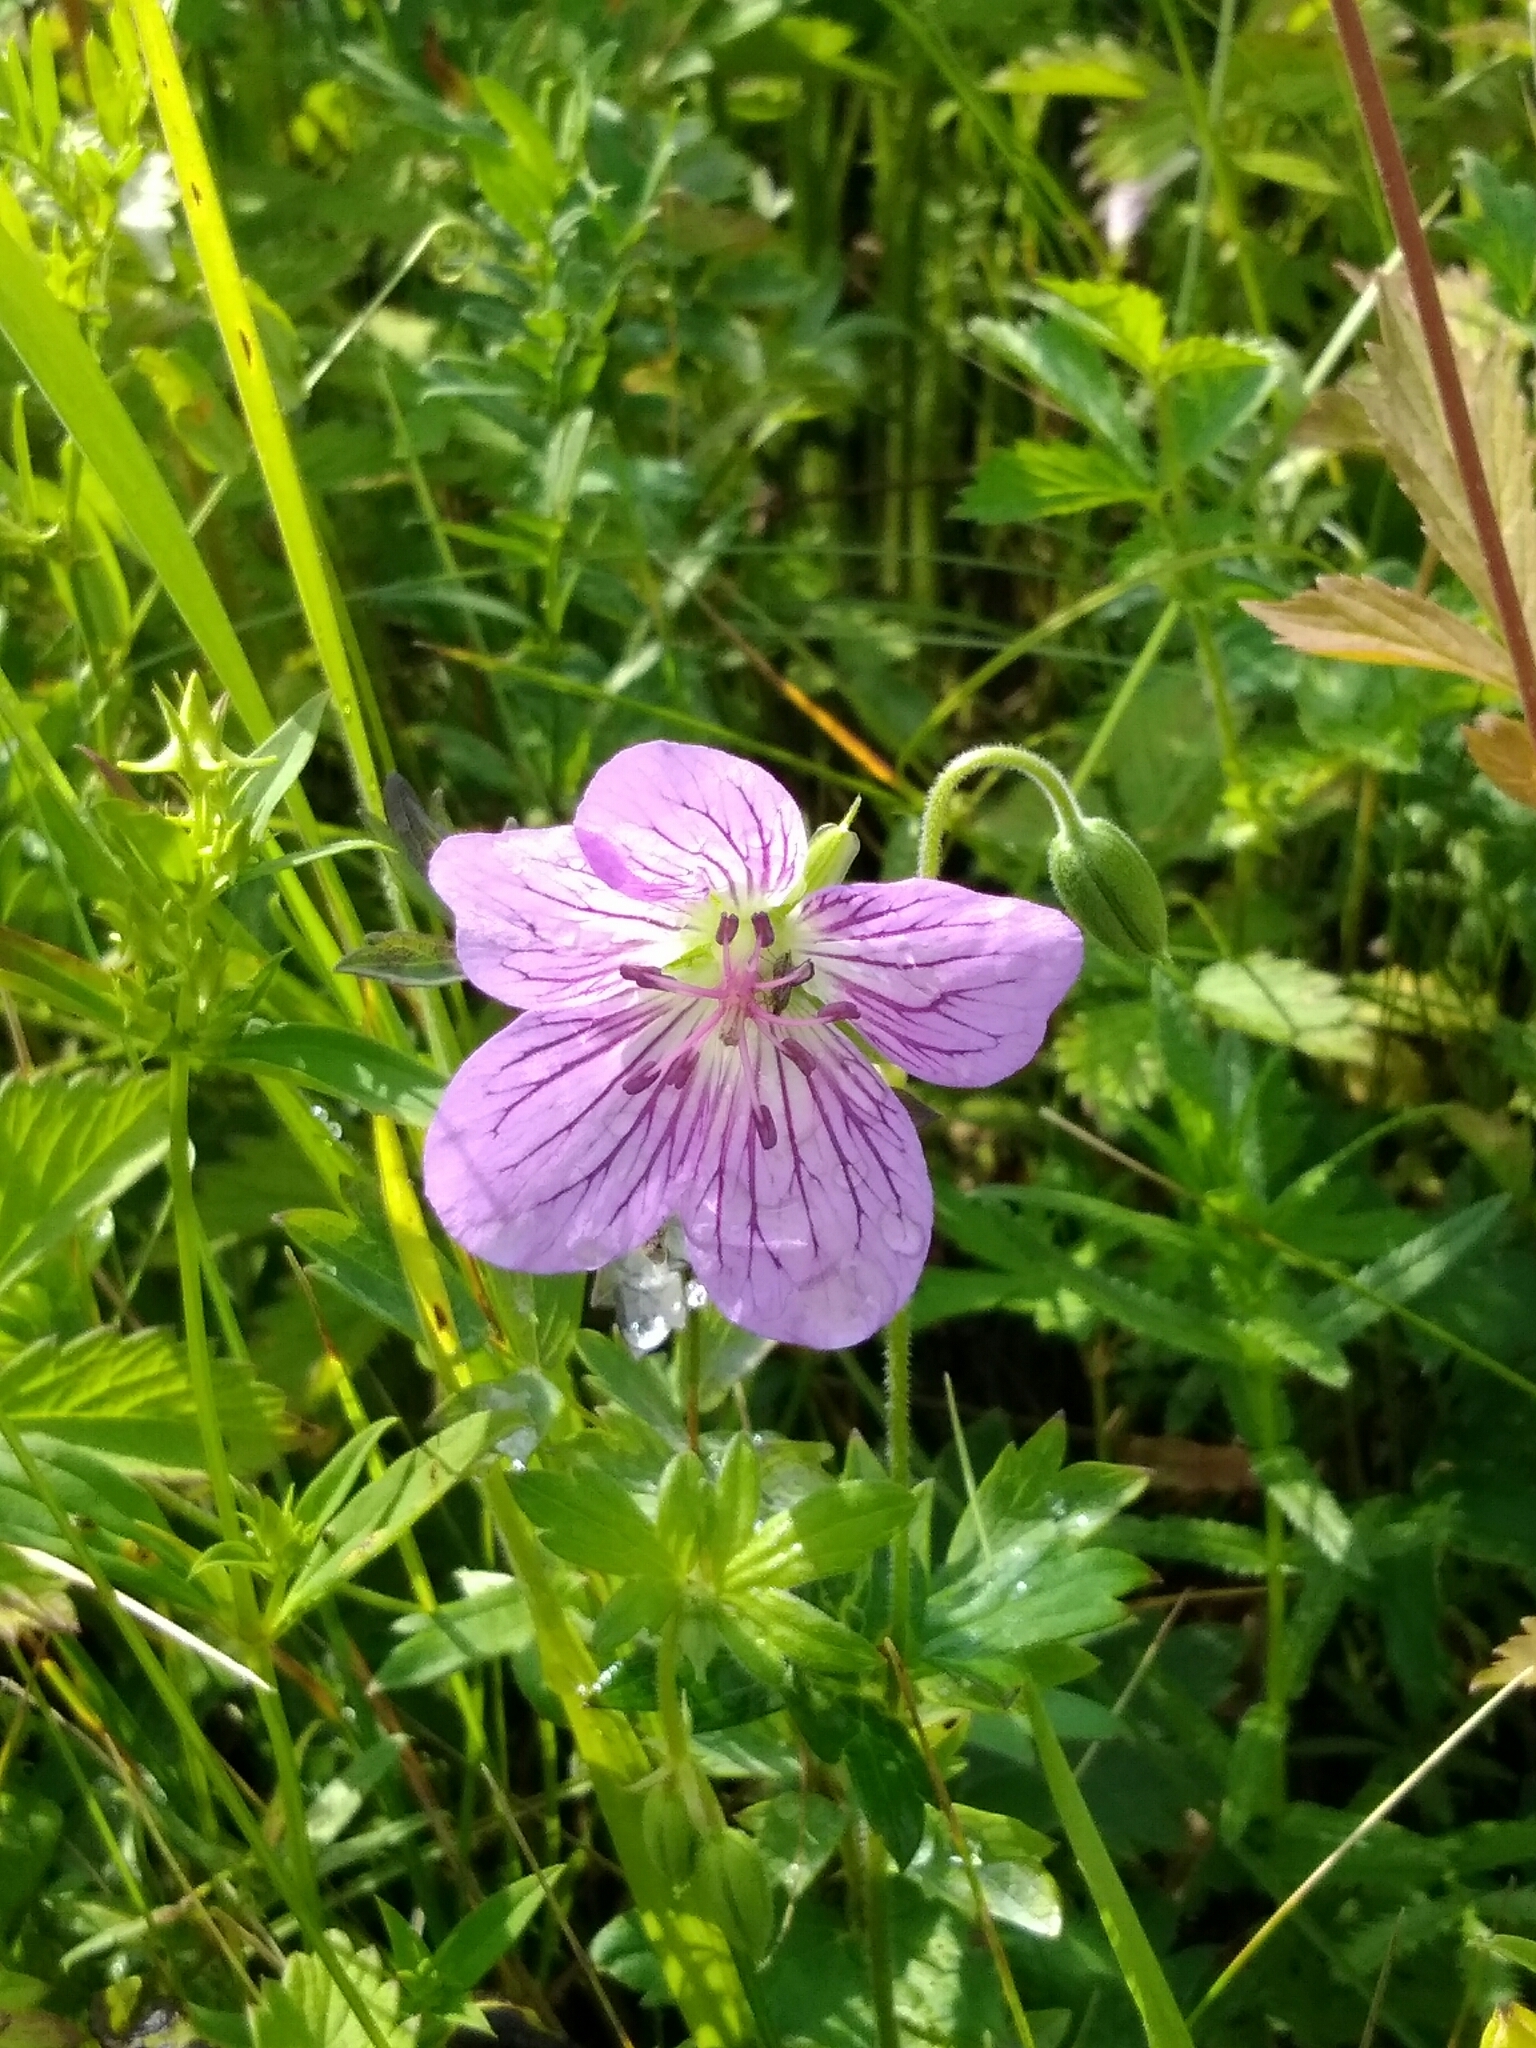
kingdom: Plantae
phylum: Tracheophyta
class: Magnoliopsida
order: Geraniales
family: Geraniaceae
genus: Geranium
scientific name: Geranium wlassovianum
